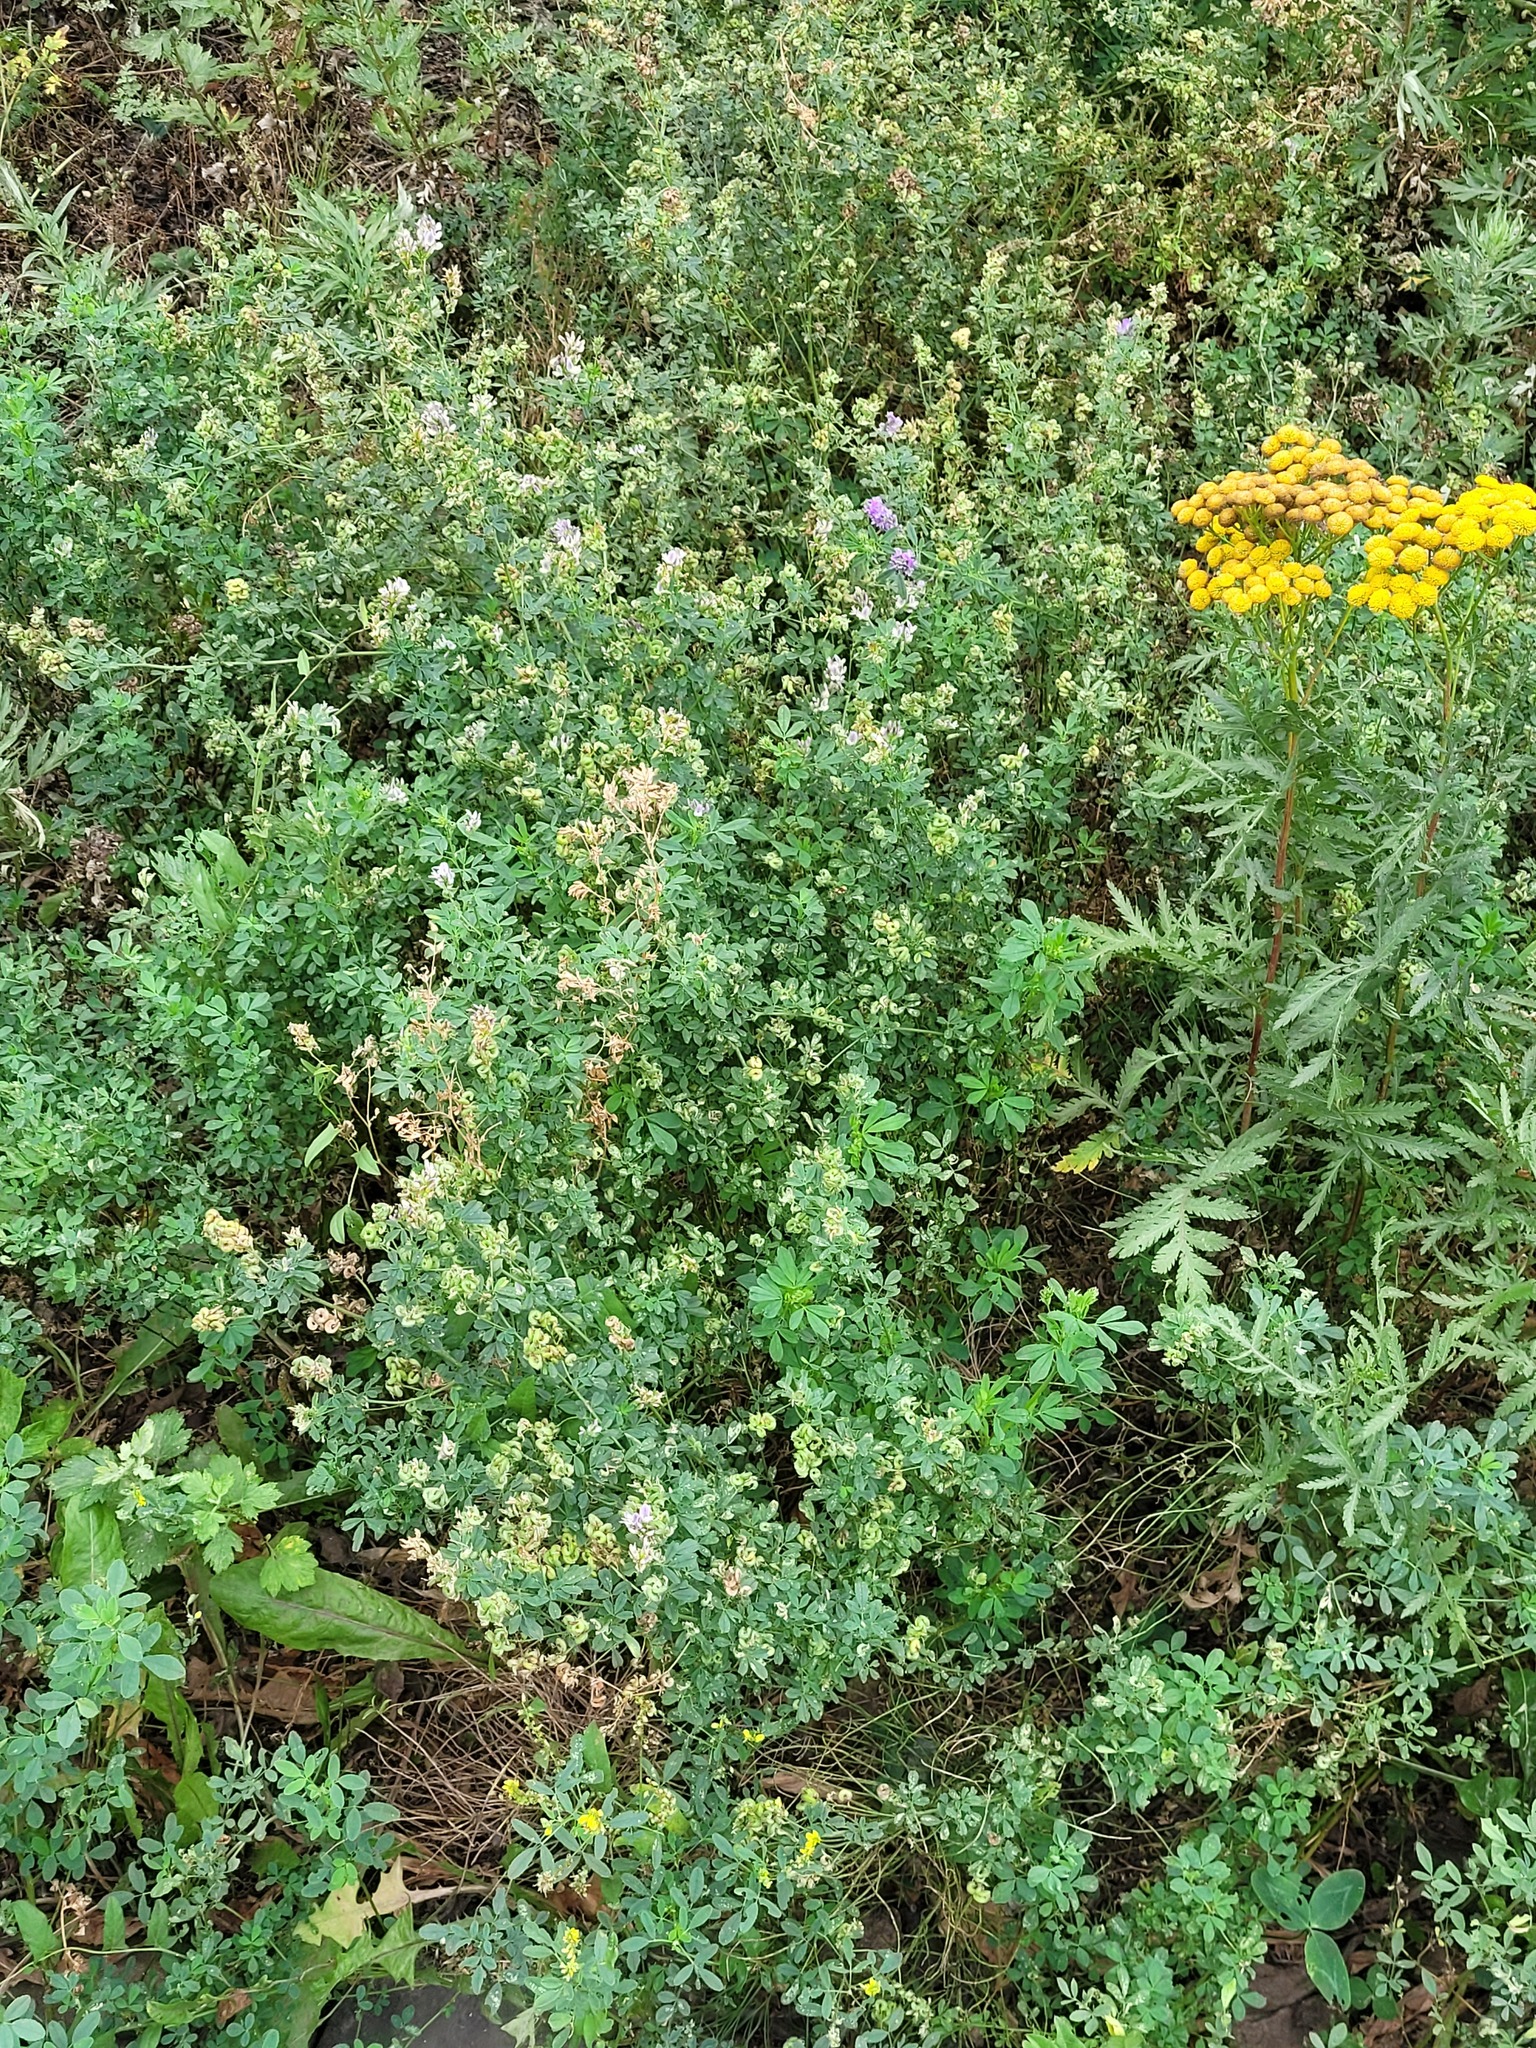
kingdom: Plantae
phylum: Tracheophyta
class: Magnoliopsida
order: Fabales
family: Fabaceae
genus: Medicago
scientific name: Medicago varia
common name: Sand lucerne
